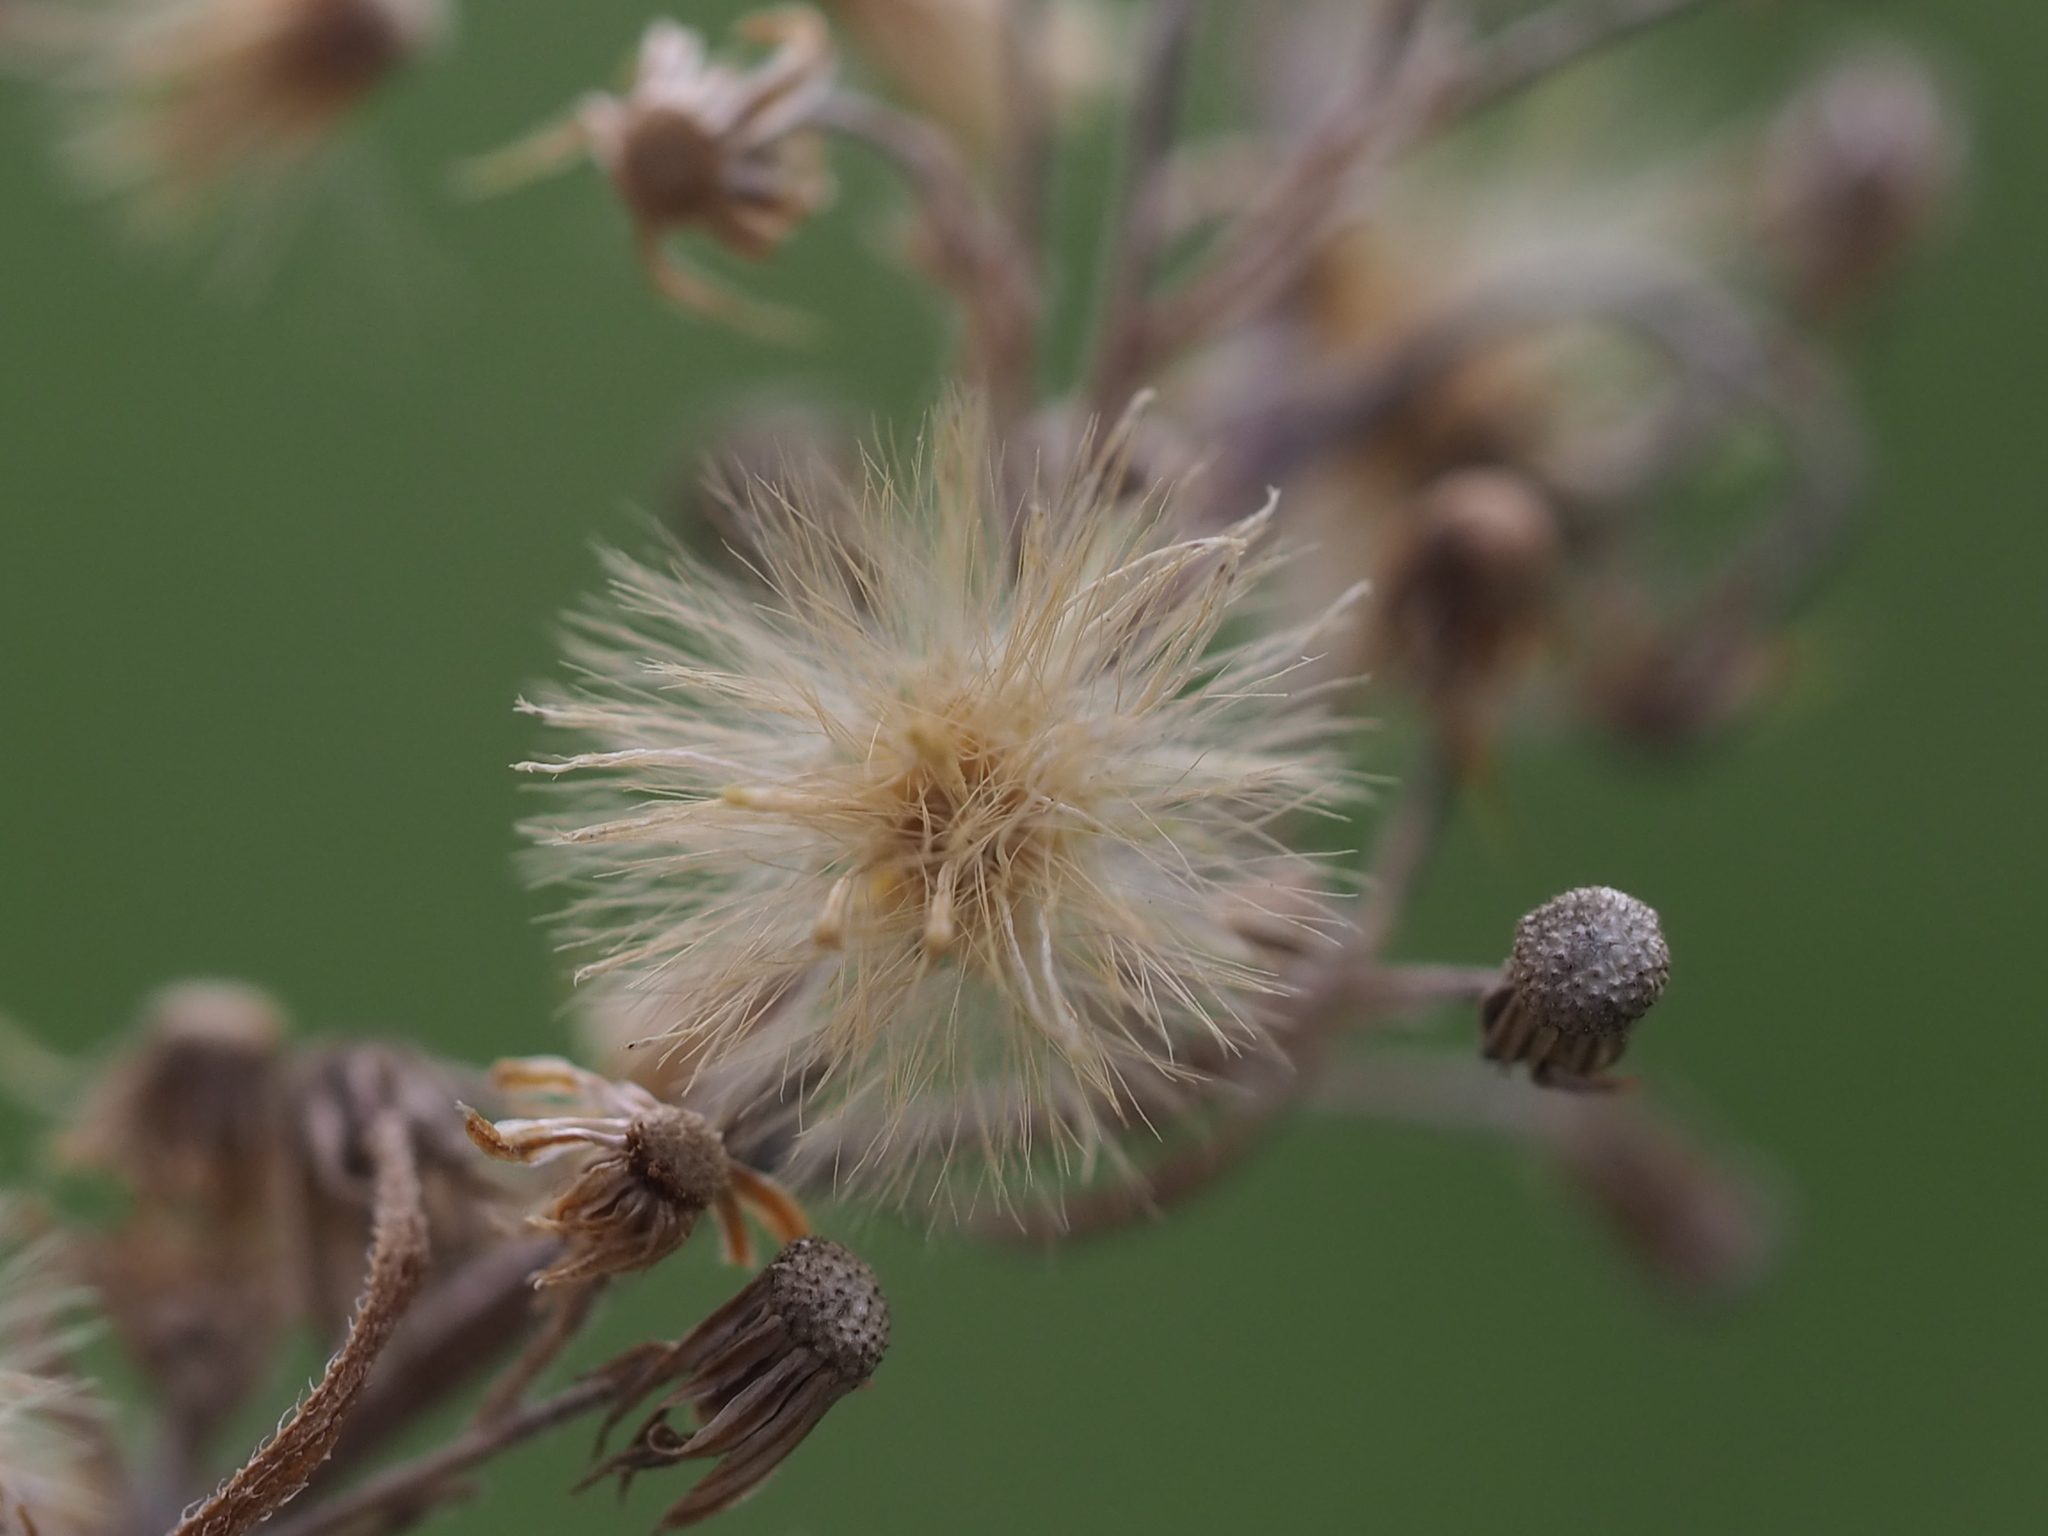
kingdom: Plantae
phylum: Tracheophyta
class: Magnoliopsida
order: Asterales
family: Asteraceae
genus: Erigeron
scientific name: Erigeron sumatrensis
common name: Daisy
